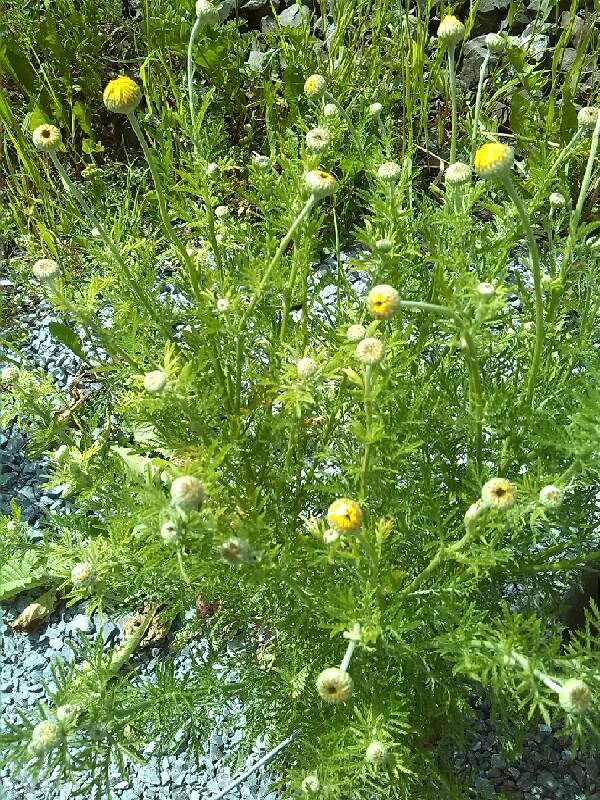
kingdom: Plantae
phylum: Tracheophyta
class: Magnoliopsida
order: Asterales
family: Asteraceae
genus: Cota
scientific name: Cota tinctoria
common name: Golden chamomile
